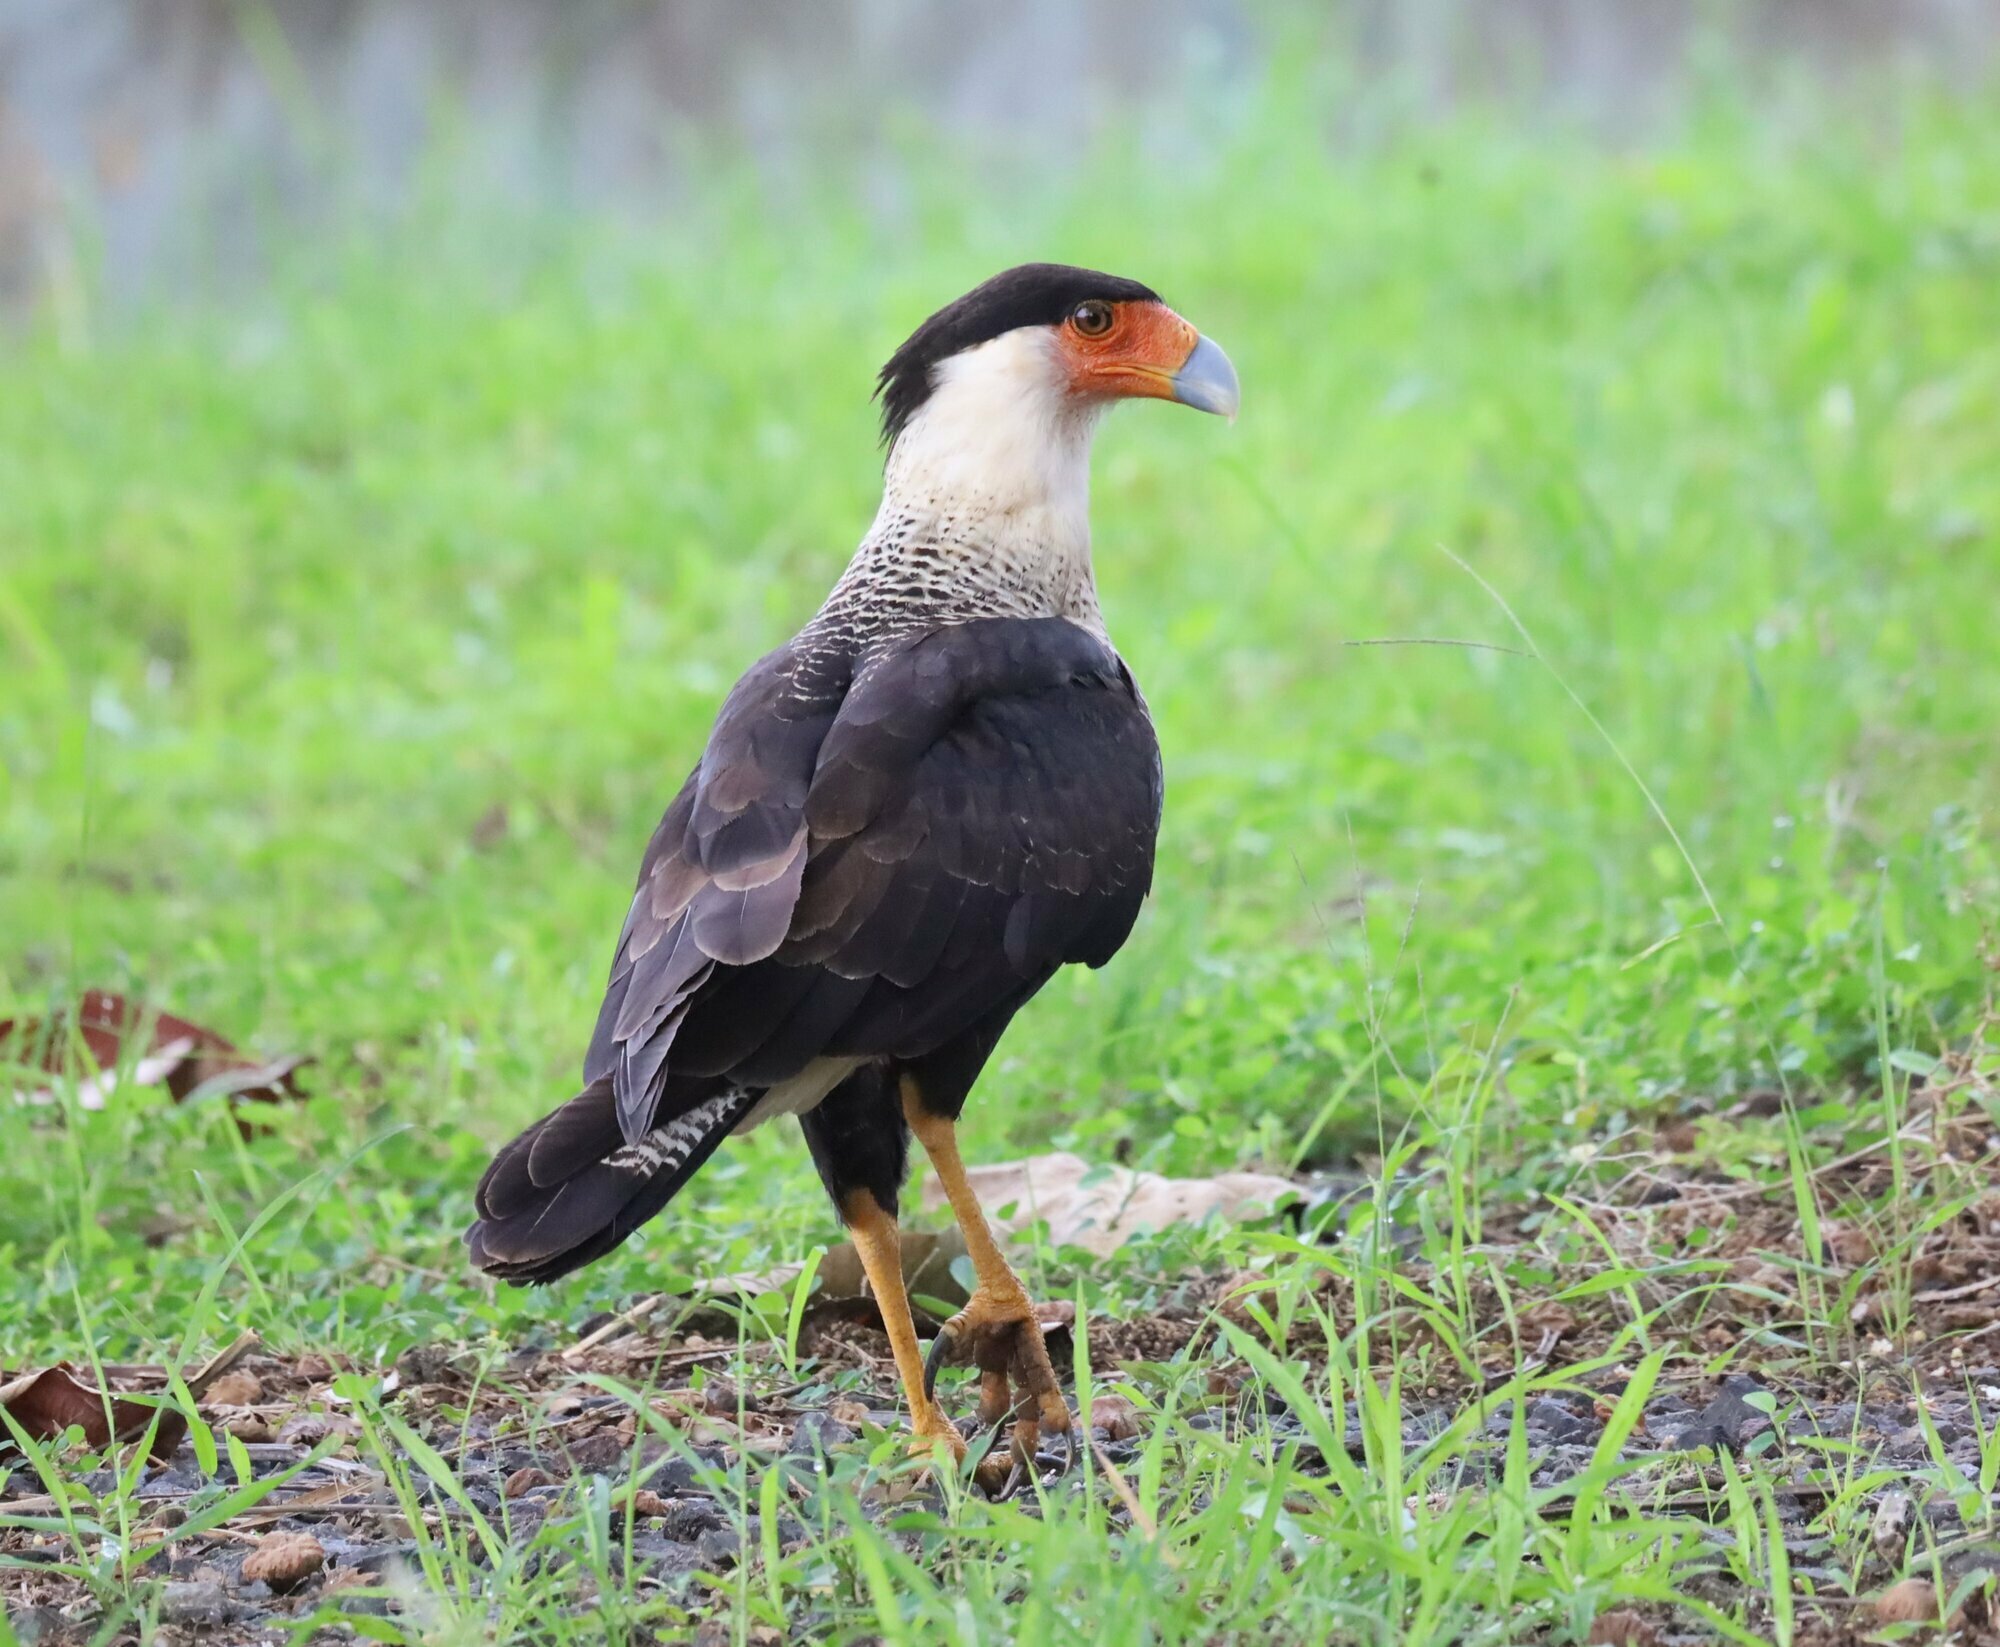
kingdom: Animalia
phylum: Chordata
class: Aves
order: Falconiformes
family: Falconidae
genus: Caracara
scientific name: Caracara plancus
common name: Southern caracara
